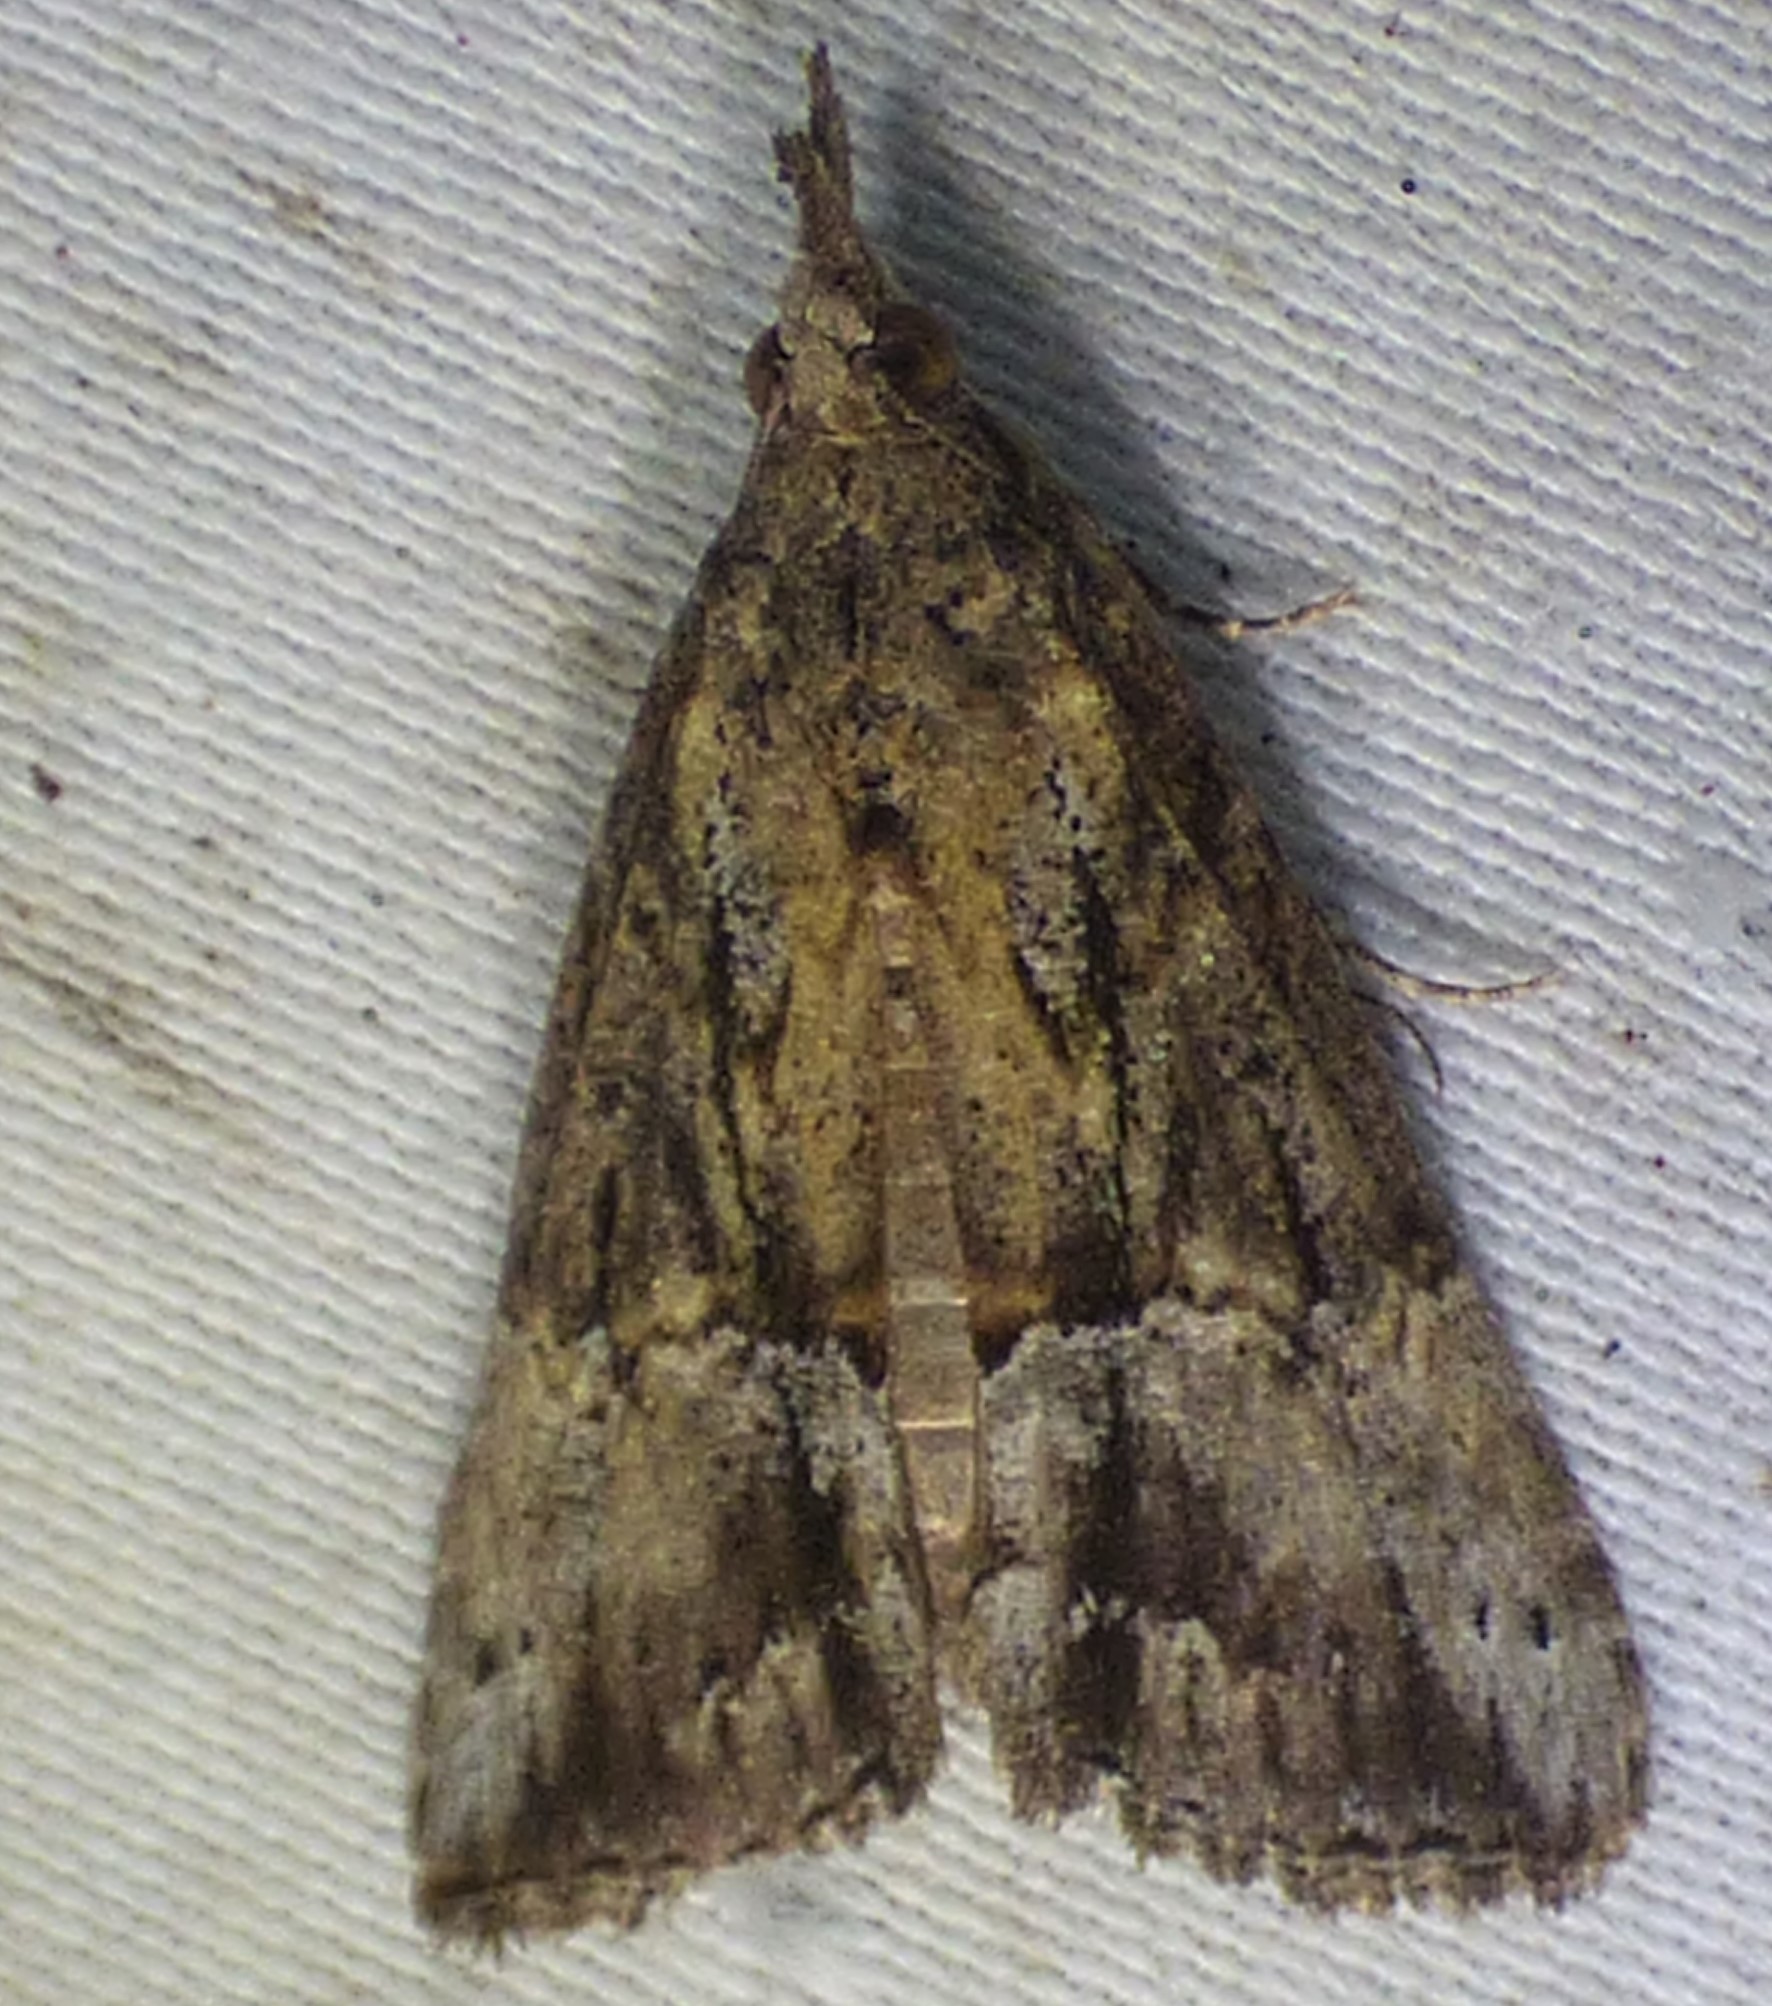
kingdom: Animalia
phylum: Arthropoda
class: Insecta
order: Lepidoptera
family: Erebidae
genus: Hypena
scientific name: Hypena scabra
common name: Green cloverworm
